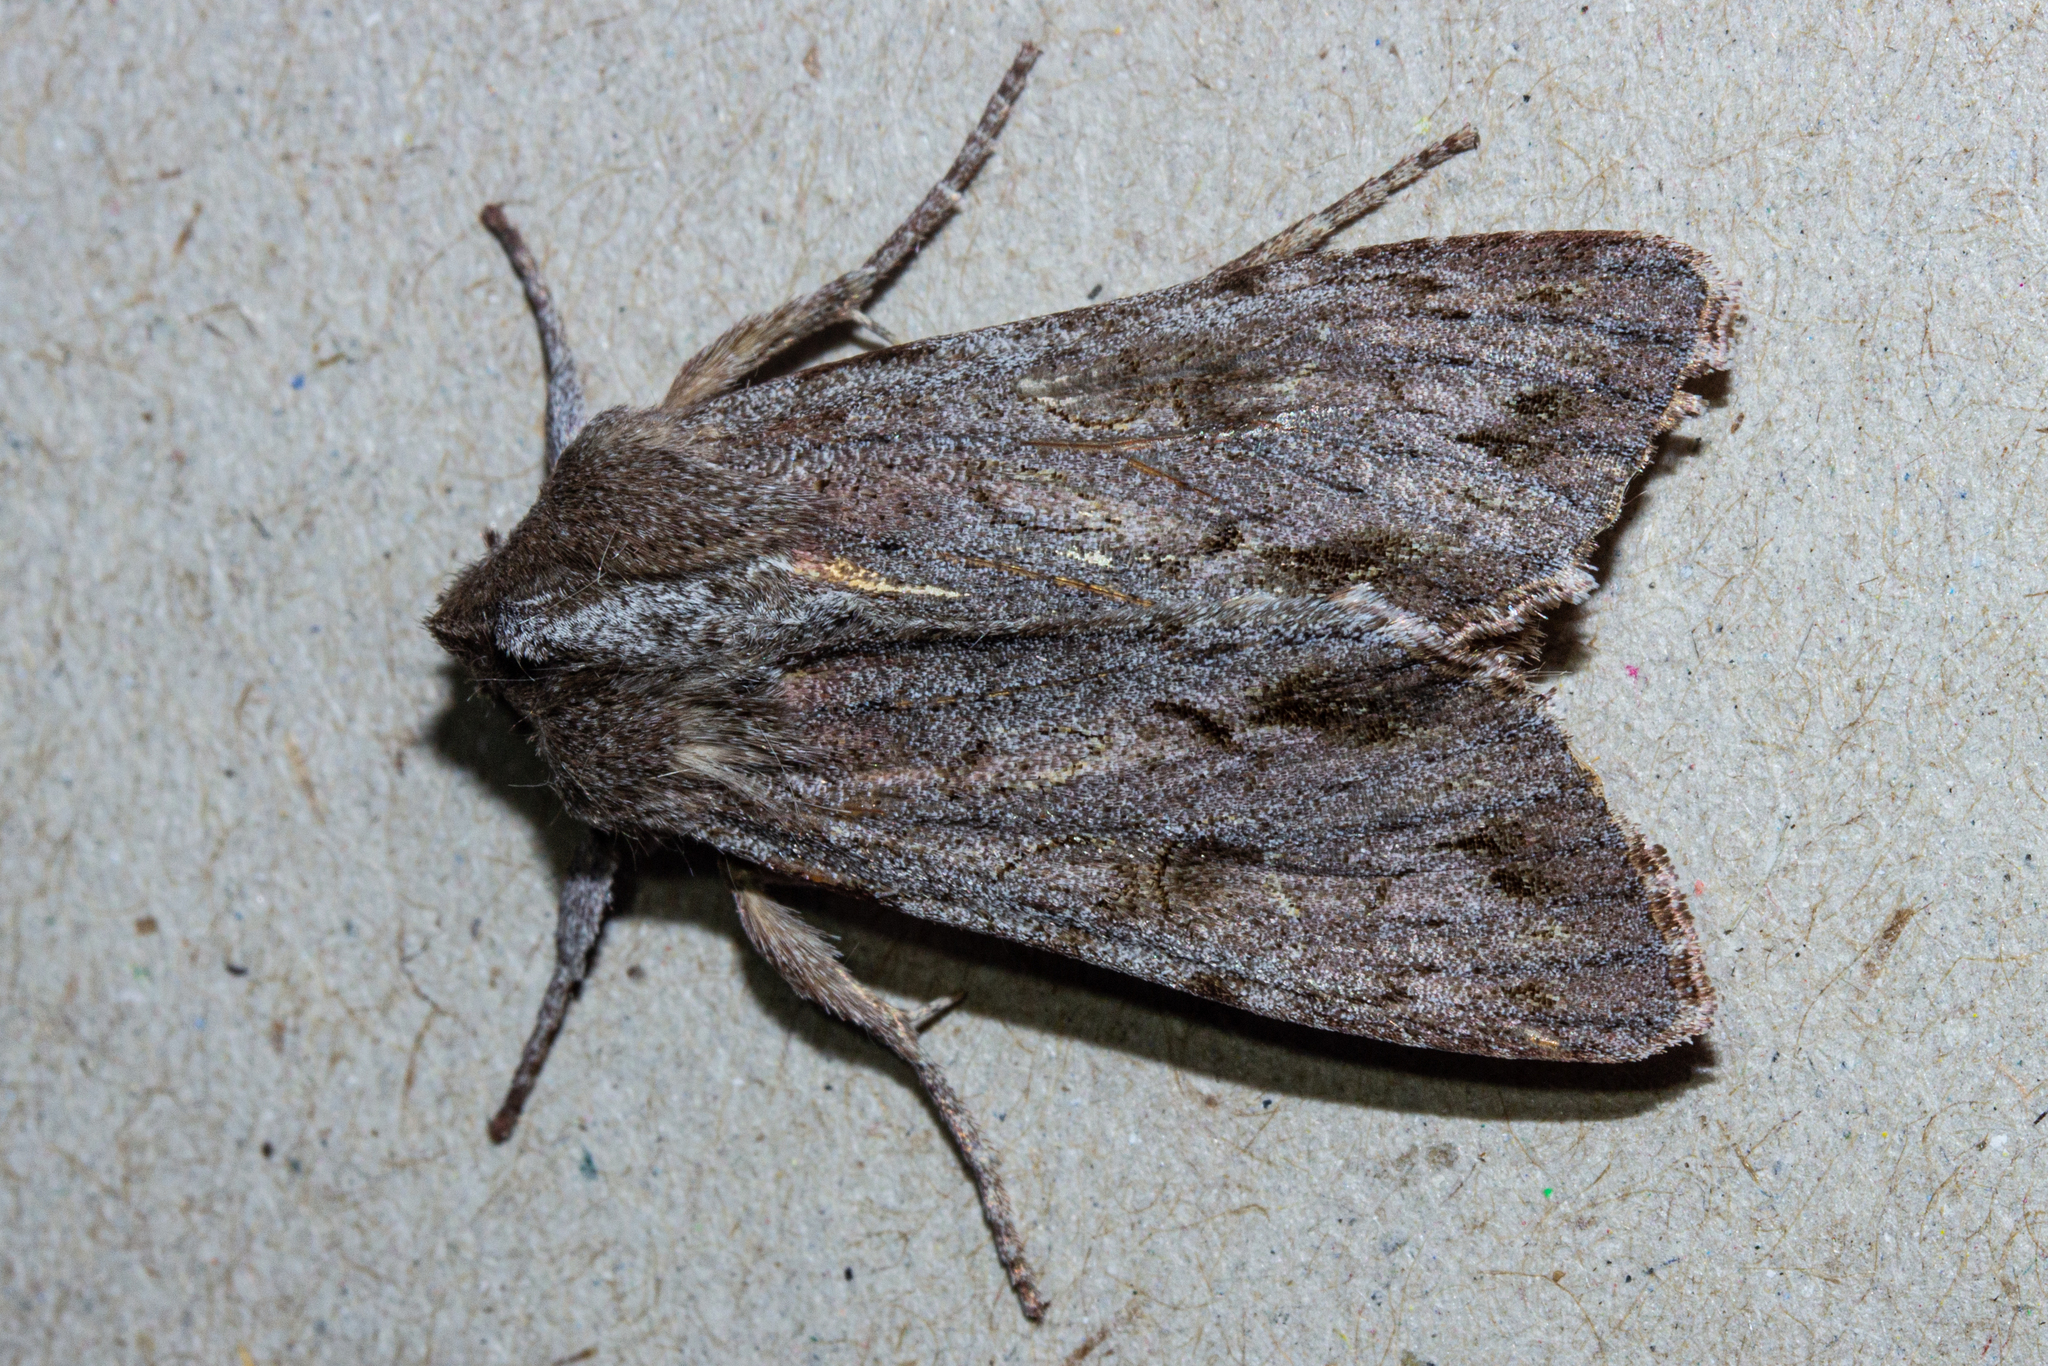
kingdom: Animalia
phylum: Arthropoda
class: Insecta
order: Lepidoptera
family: Noctuidae
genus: Ichneutica
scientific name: Ichneutica
